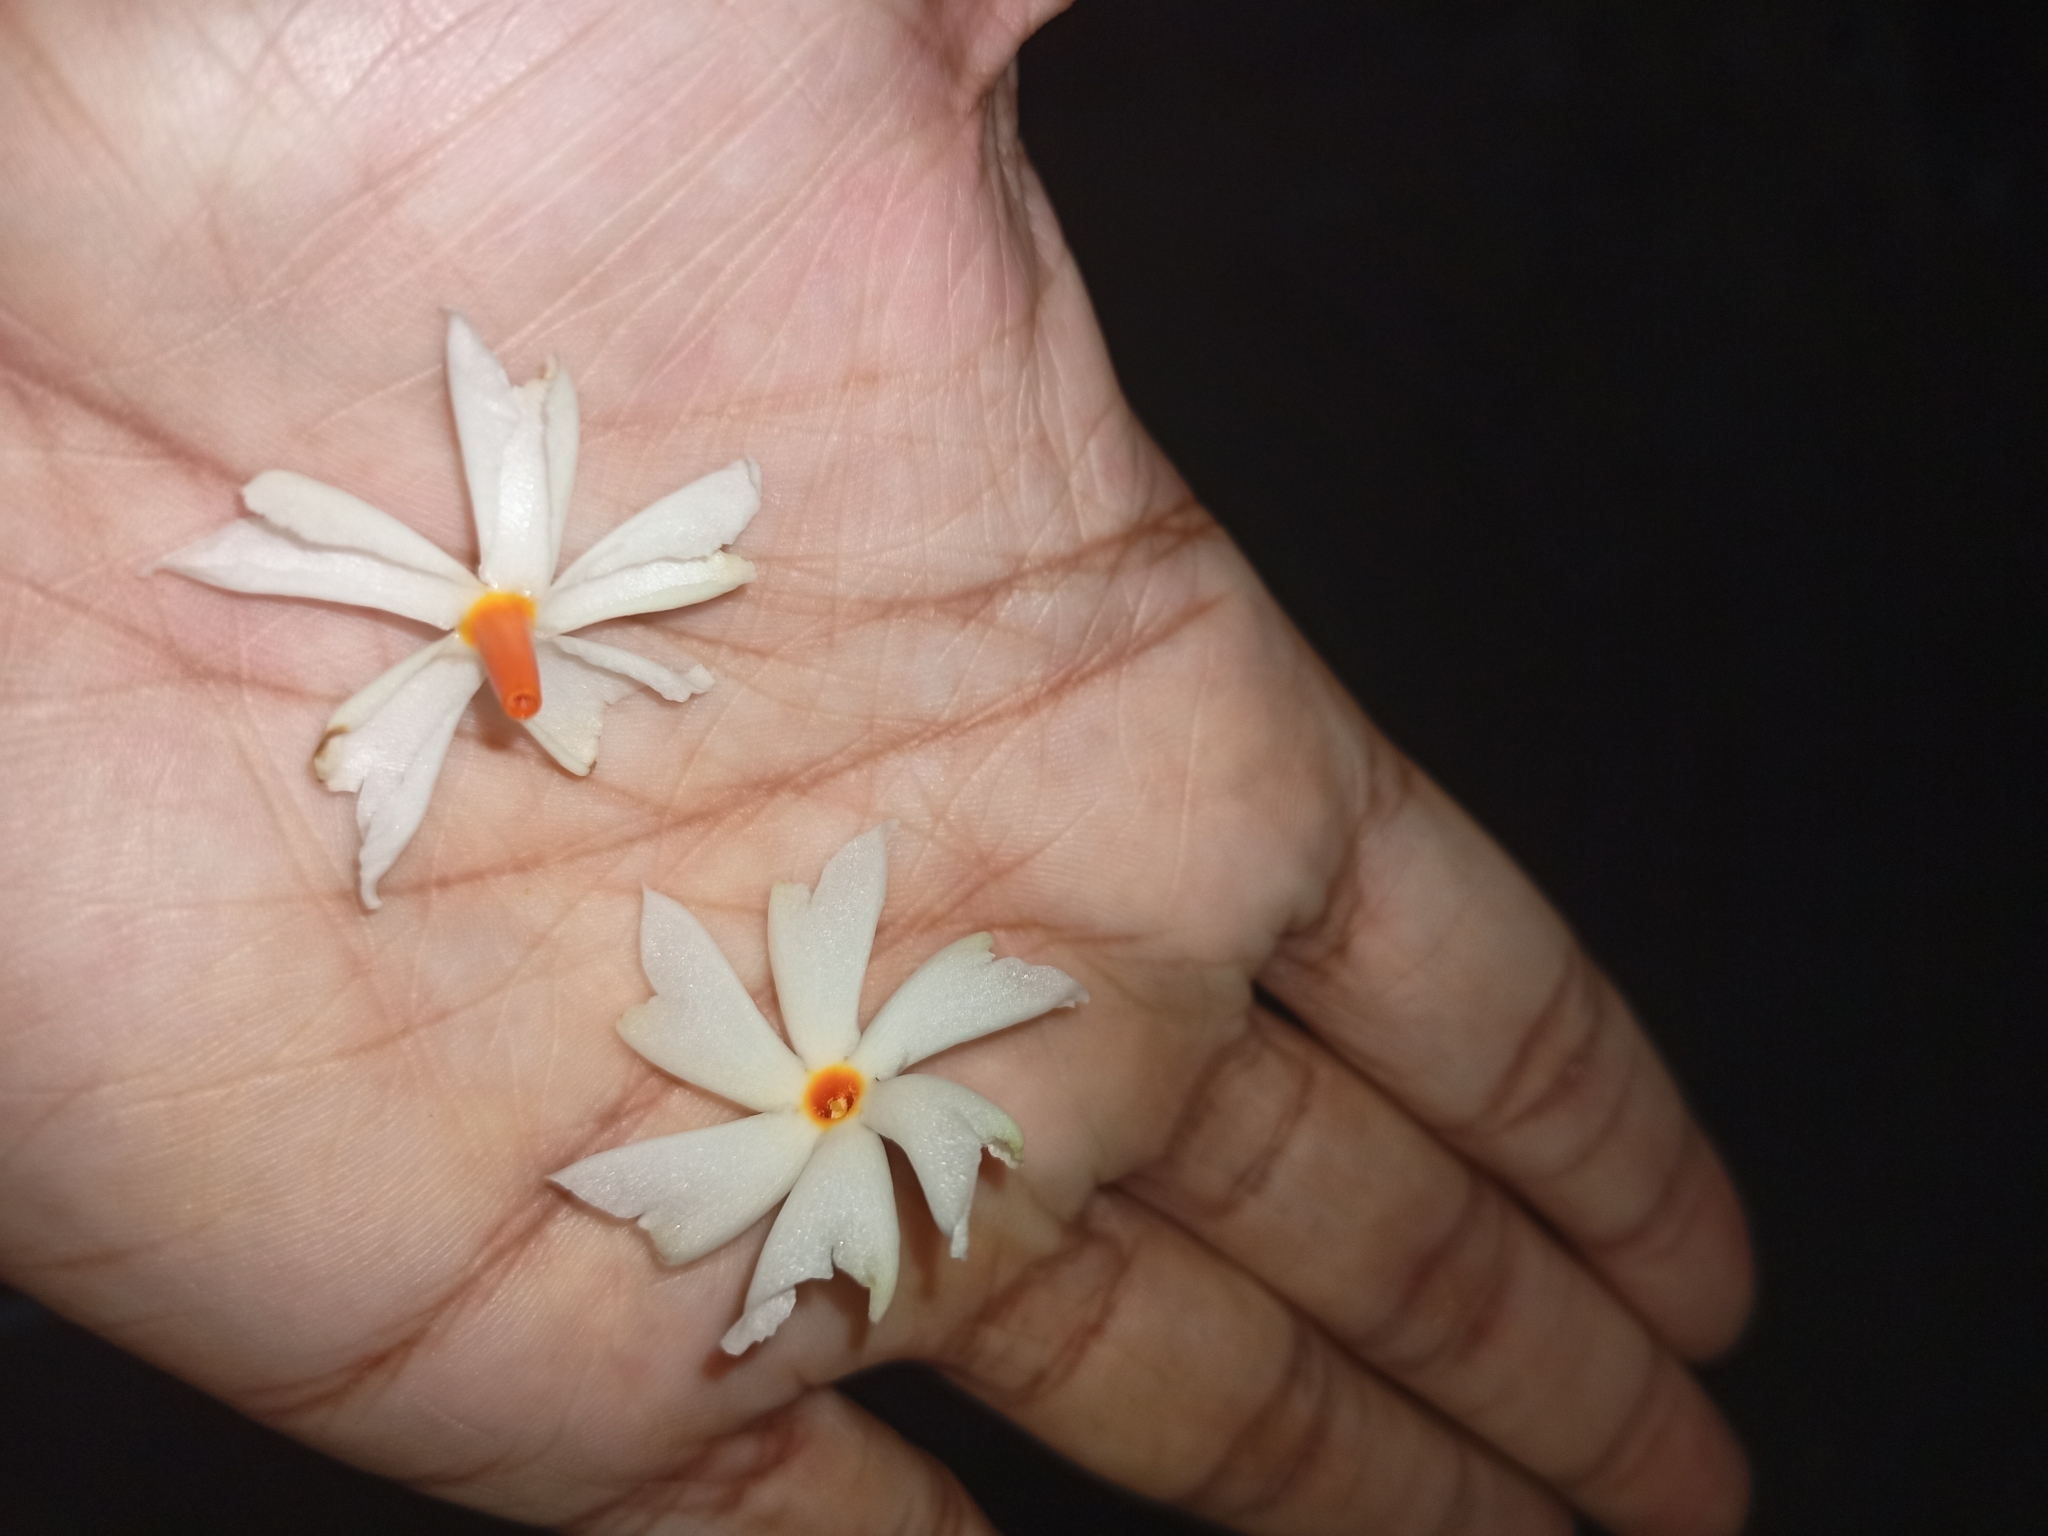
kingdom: Plantae
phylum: Tracheophyta
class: Magnoliopsida
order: Lamiales
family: Oleaceae
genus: Nyctanthes
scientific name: Nyctanthes arbor-tristis
